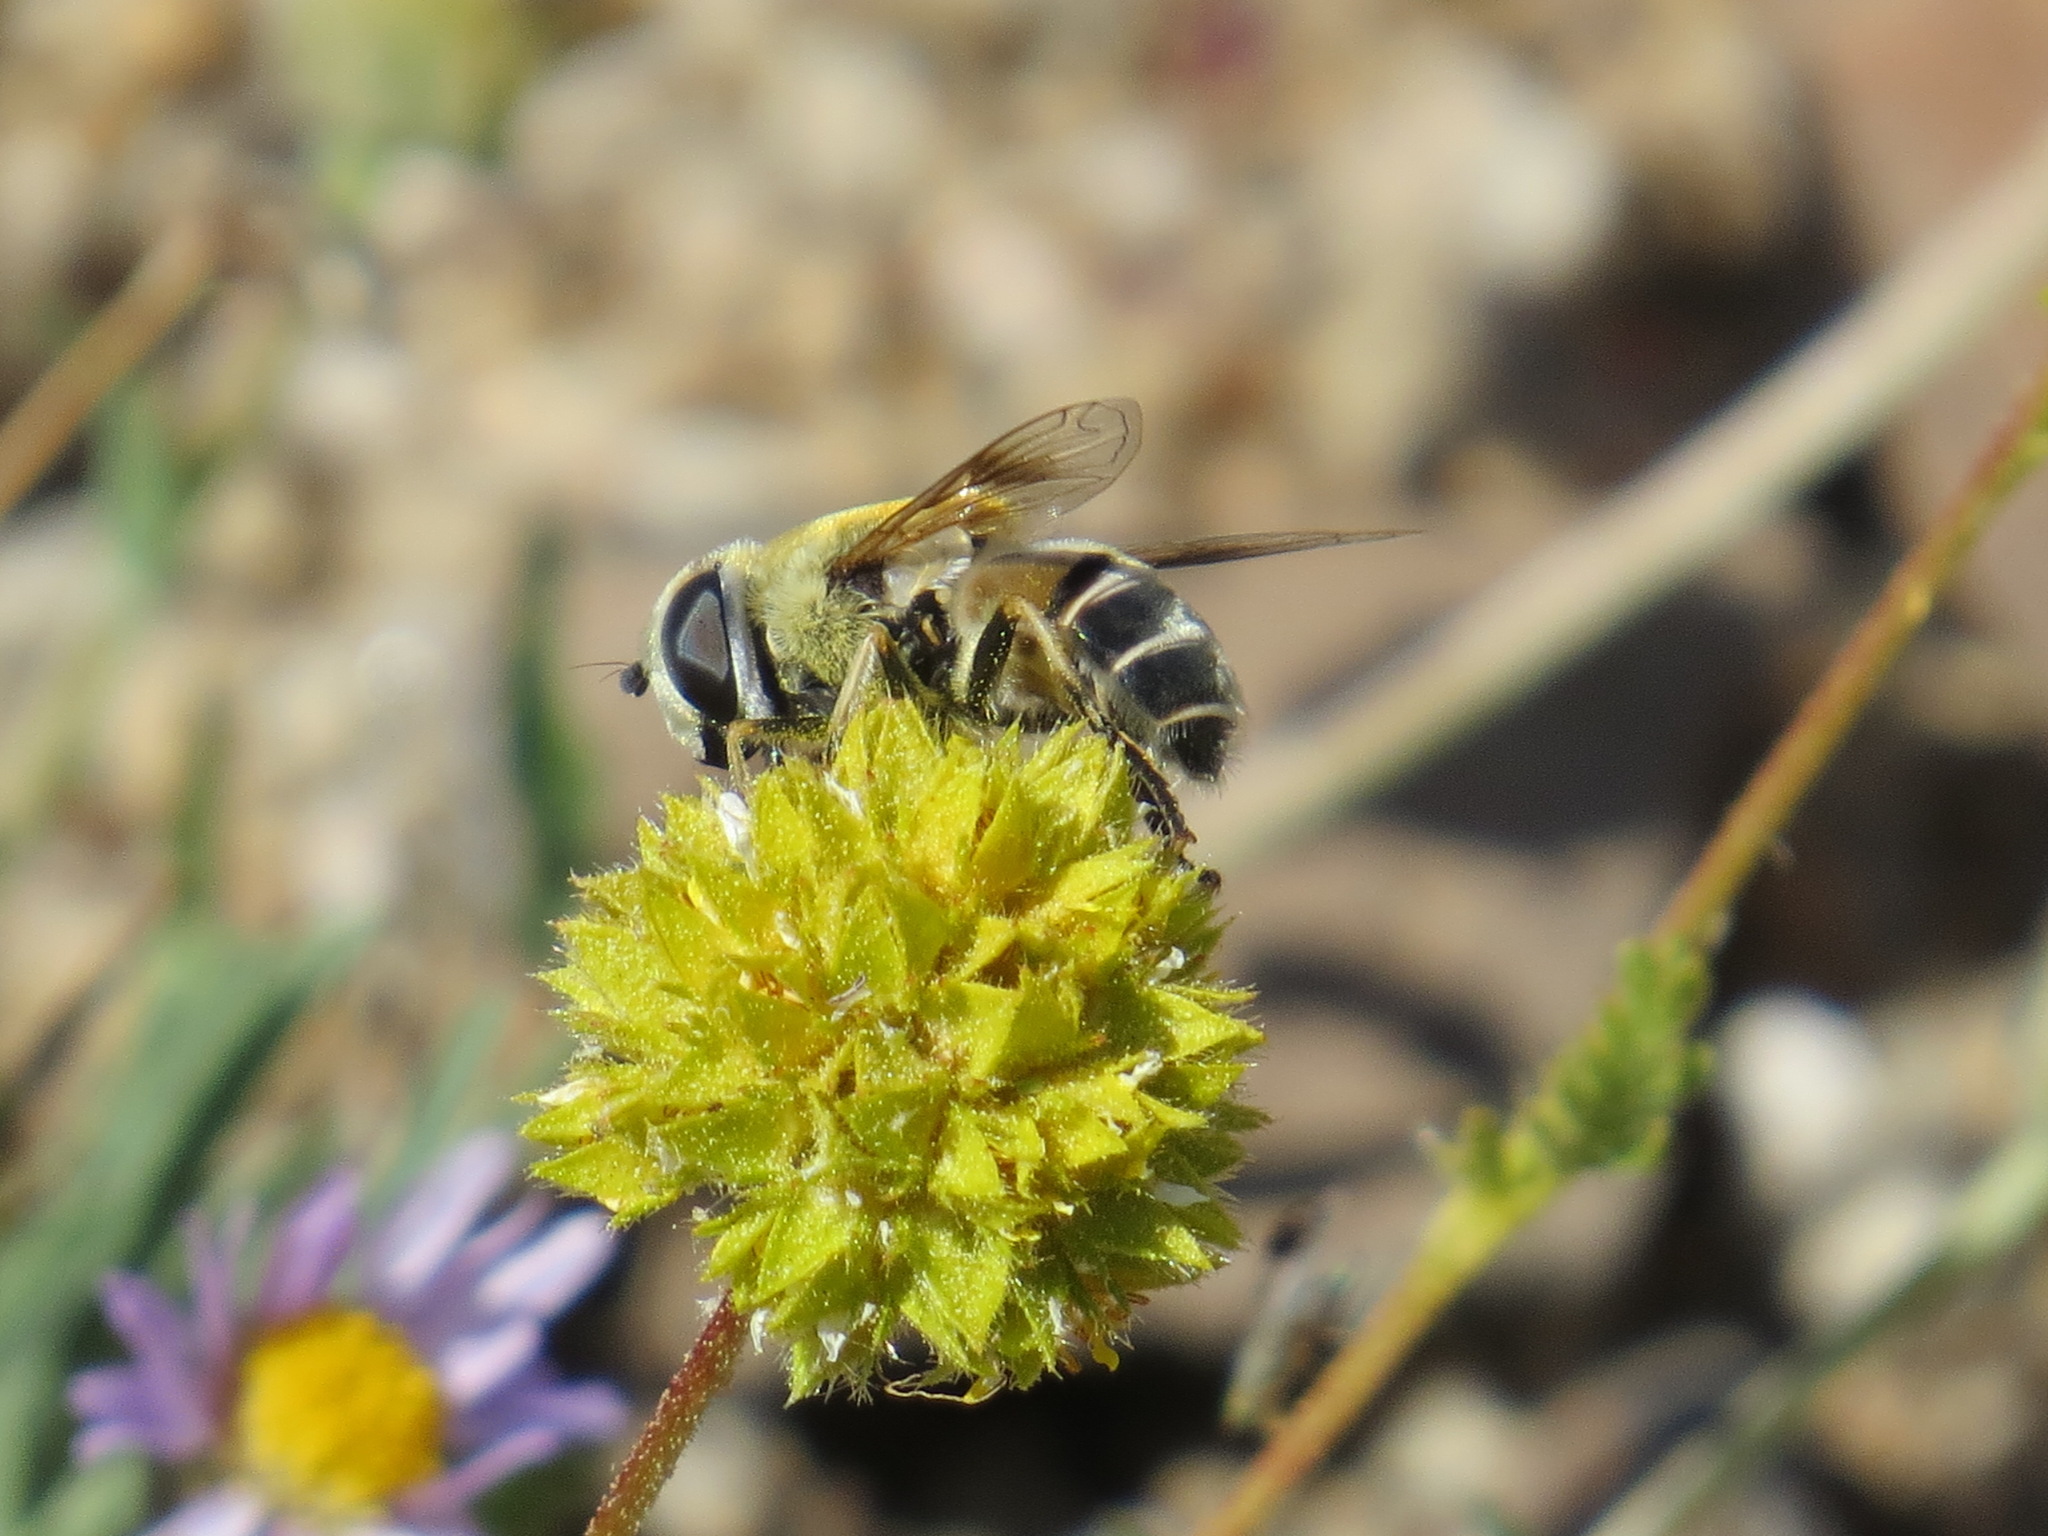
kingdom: Animalia
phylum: Arthropoda
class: Insecta
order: Diptera
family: Syrphidae
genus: Eristalis
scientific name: Eristalis stipator
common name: Yellow-shouldered drone fly
